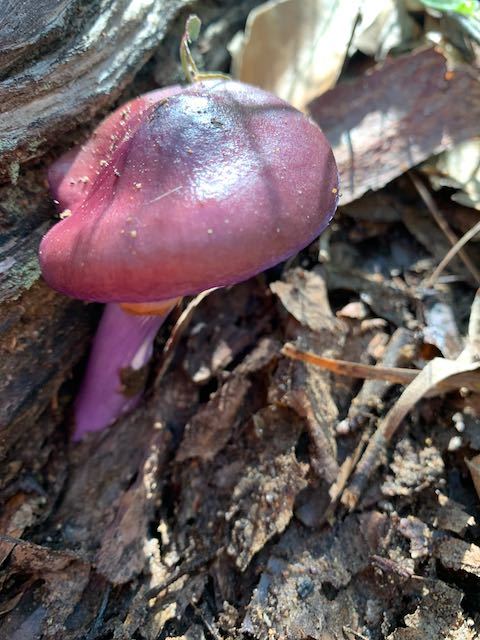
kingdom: Fungi
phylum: Basidiomycota
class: Agaricomycetes
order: Agaricales
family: Cortinariaceae
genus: Cortinarius
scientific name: Cortinarius archeri
